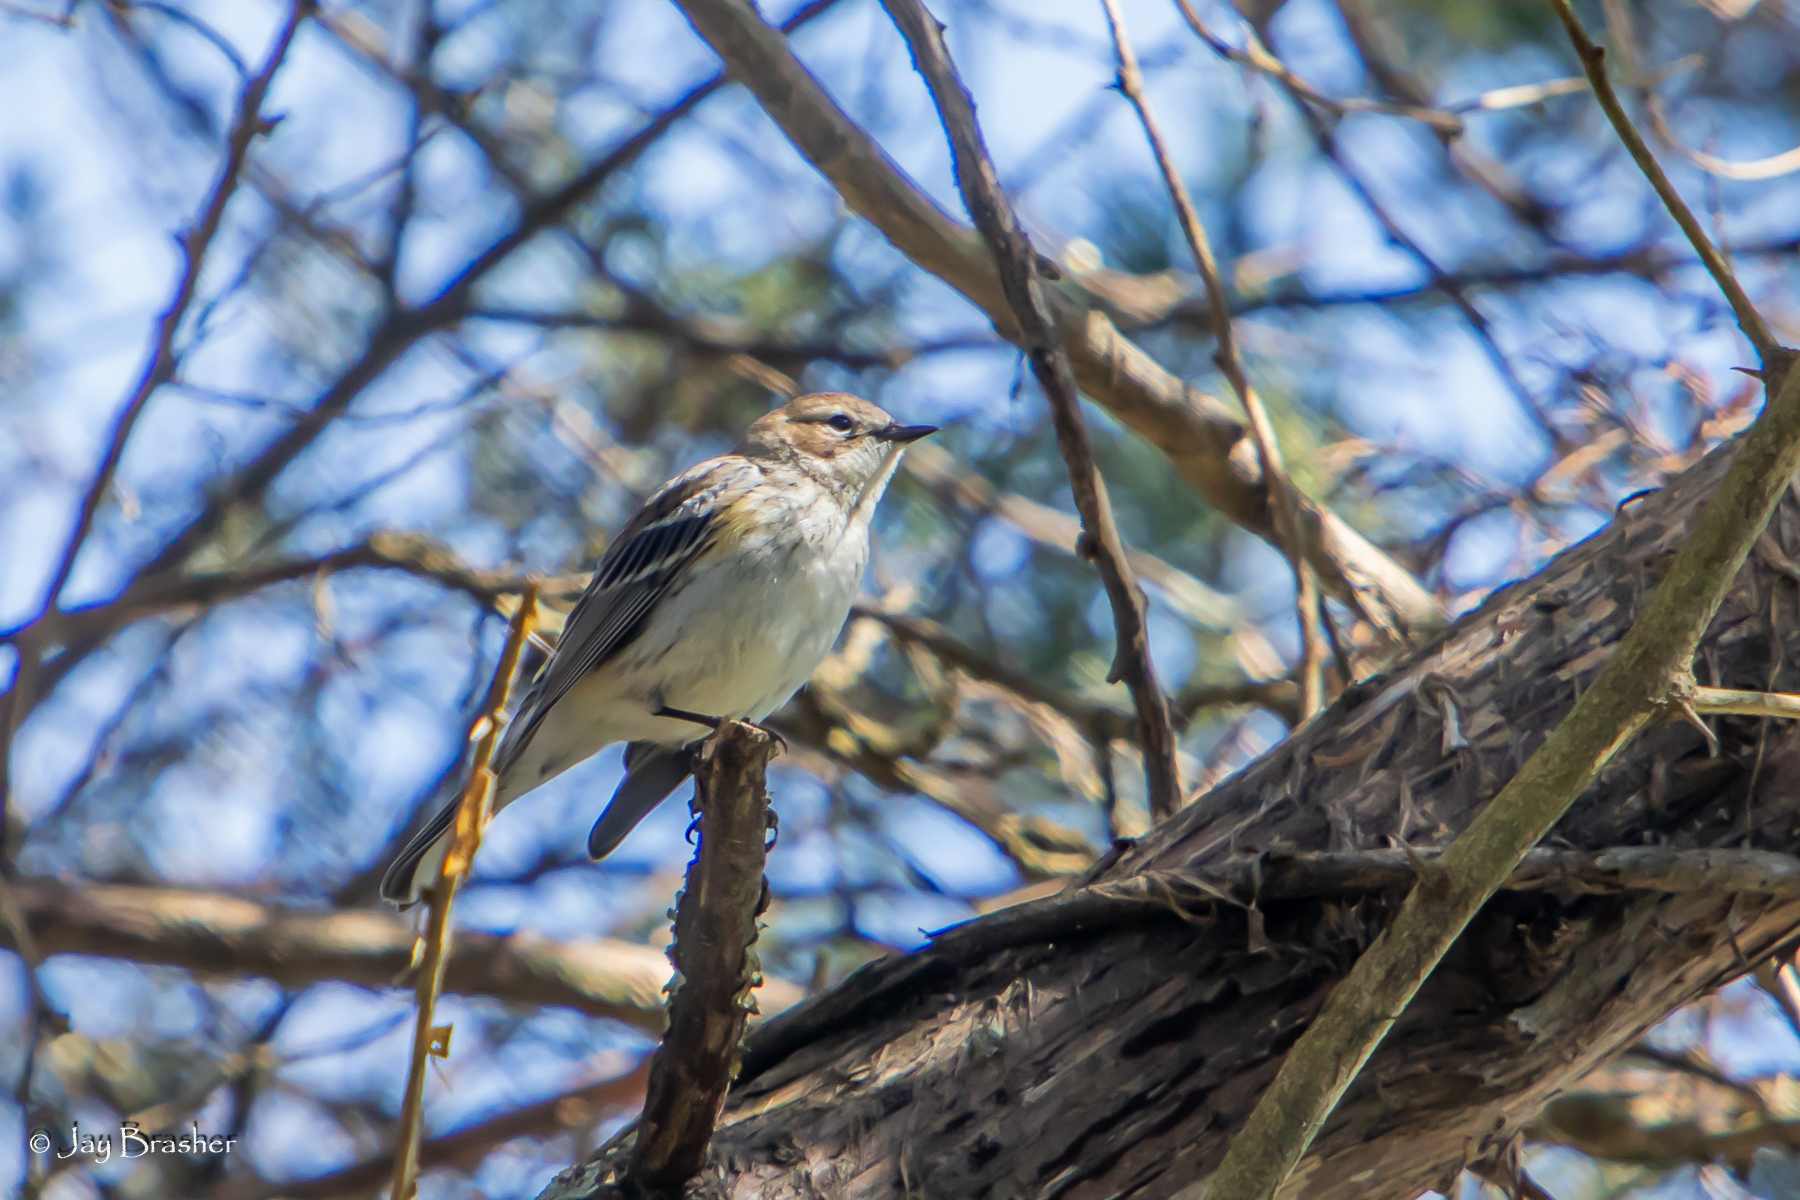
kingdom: Animalia
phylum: Chordata
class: Aves
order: Passeriformes
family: Parulidae
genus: Setophaga
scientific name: Setophaga coronata
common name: Myrtle warbler
